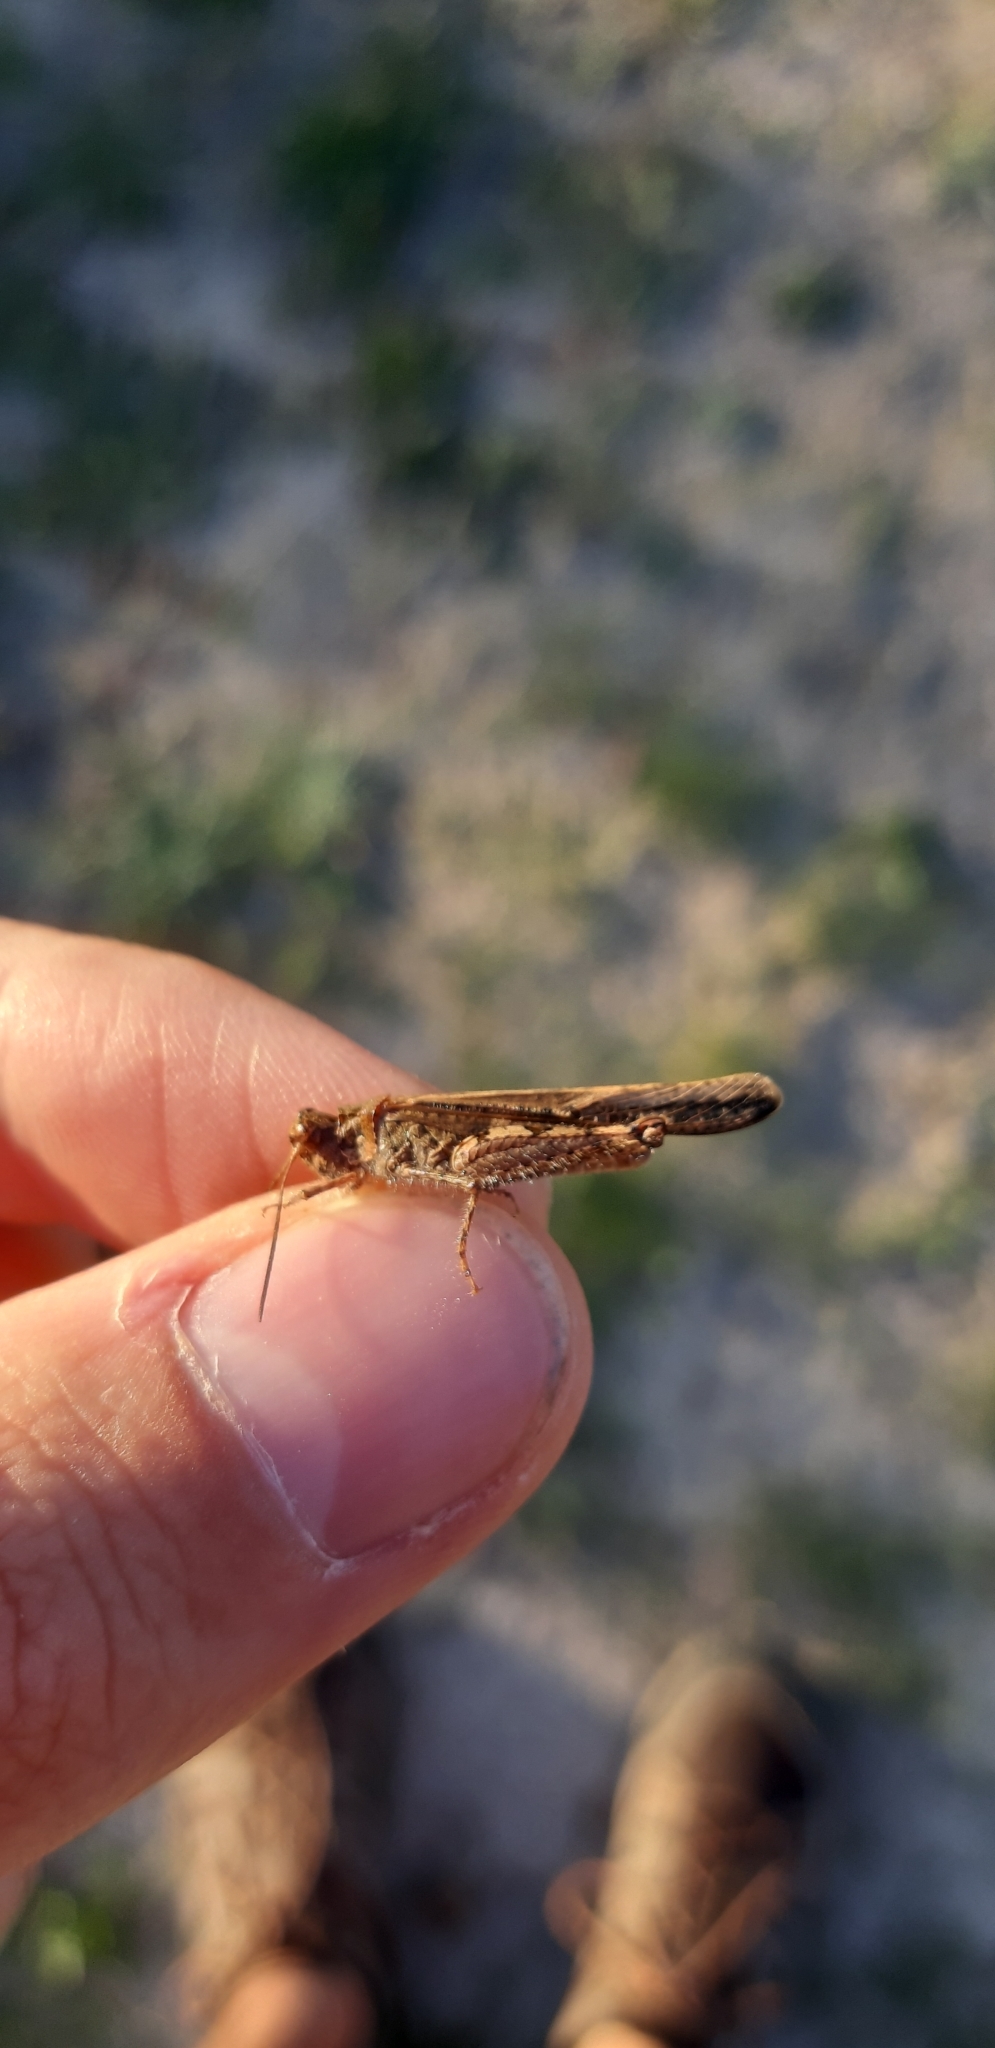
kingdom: Animalia
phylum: Arthropoda
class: Insecta
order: Orthoptera
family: Acrididae
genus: Acrotylus
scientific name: Acrotylus patruelis
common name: Slender burrowing grasshopper
